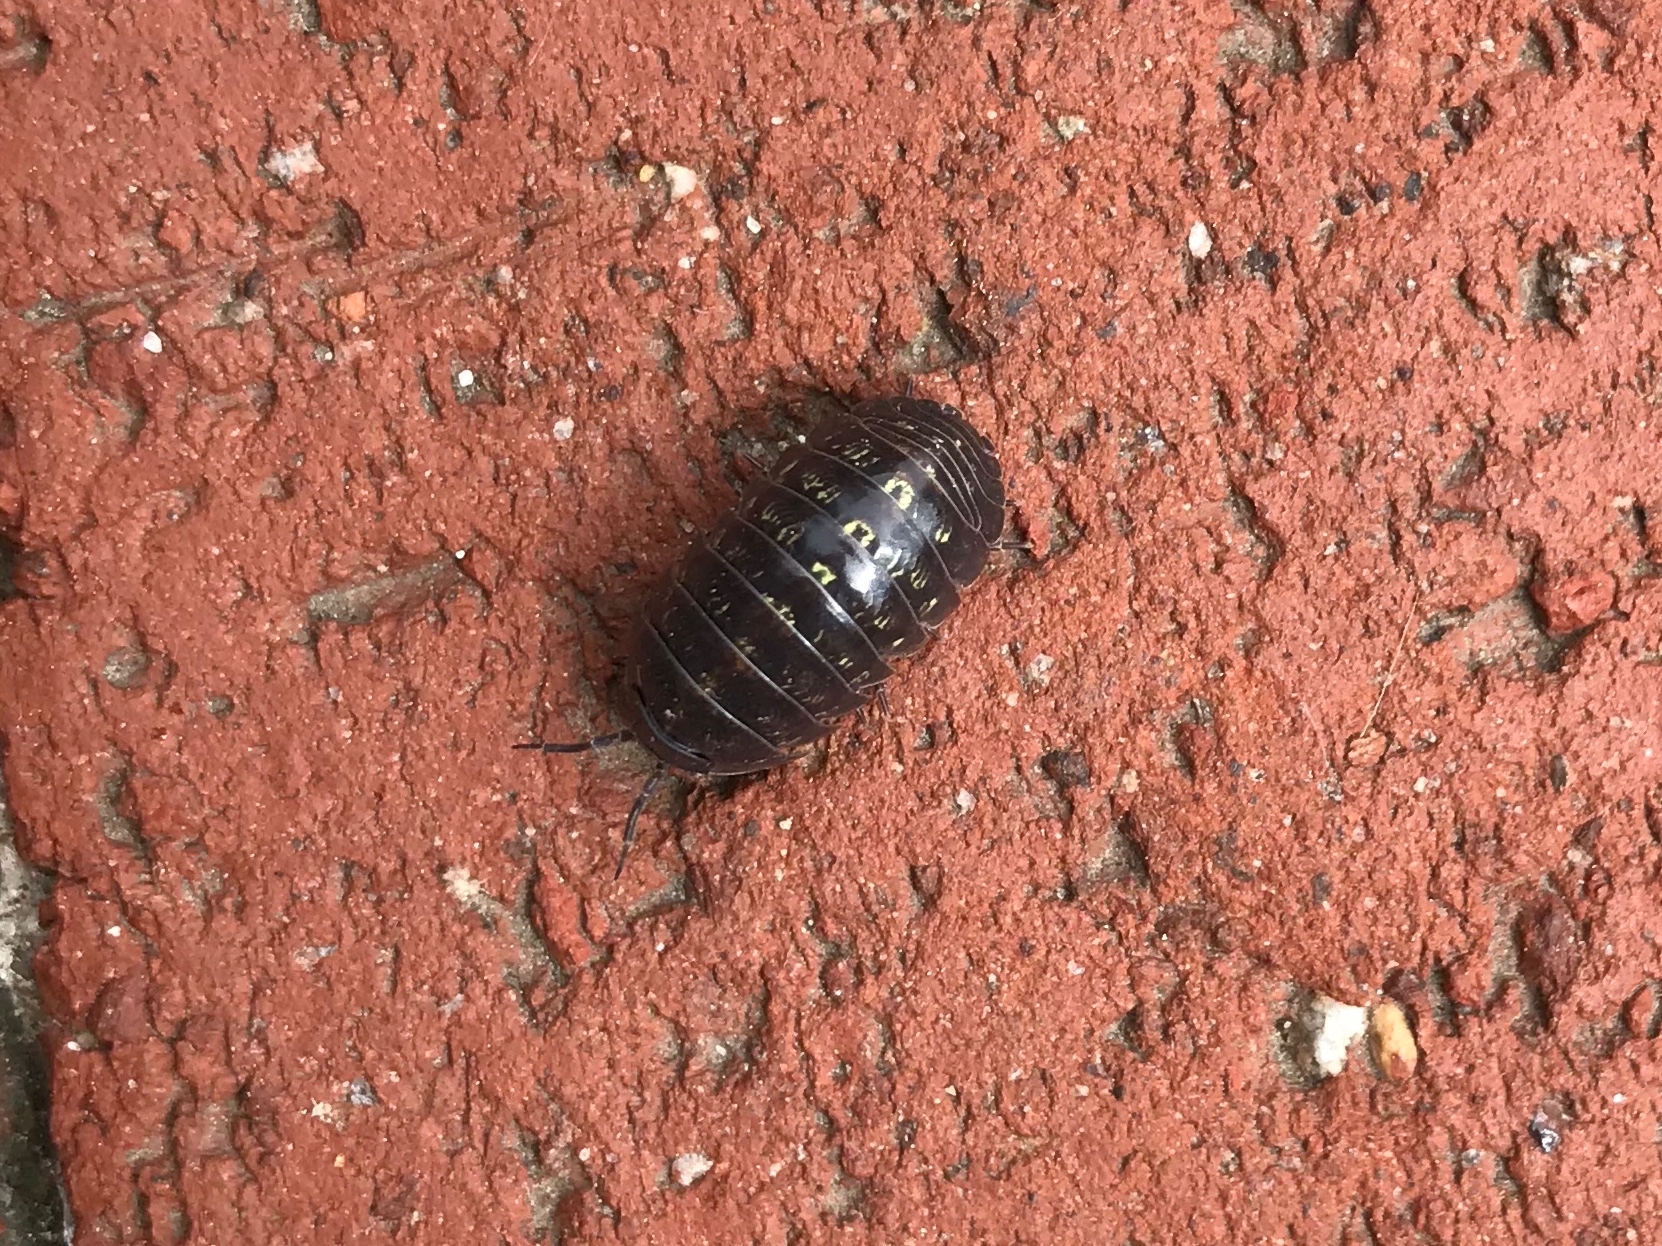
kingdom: Animalia
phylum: Arthropoda
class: Malacostraca
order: Isopoda
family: Armadillidiidae
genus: Armadillidium
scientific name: Armadillidium vulgare
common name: Common pill woodlouse
